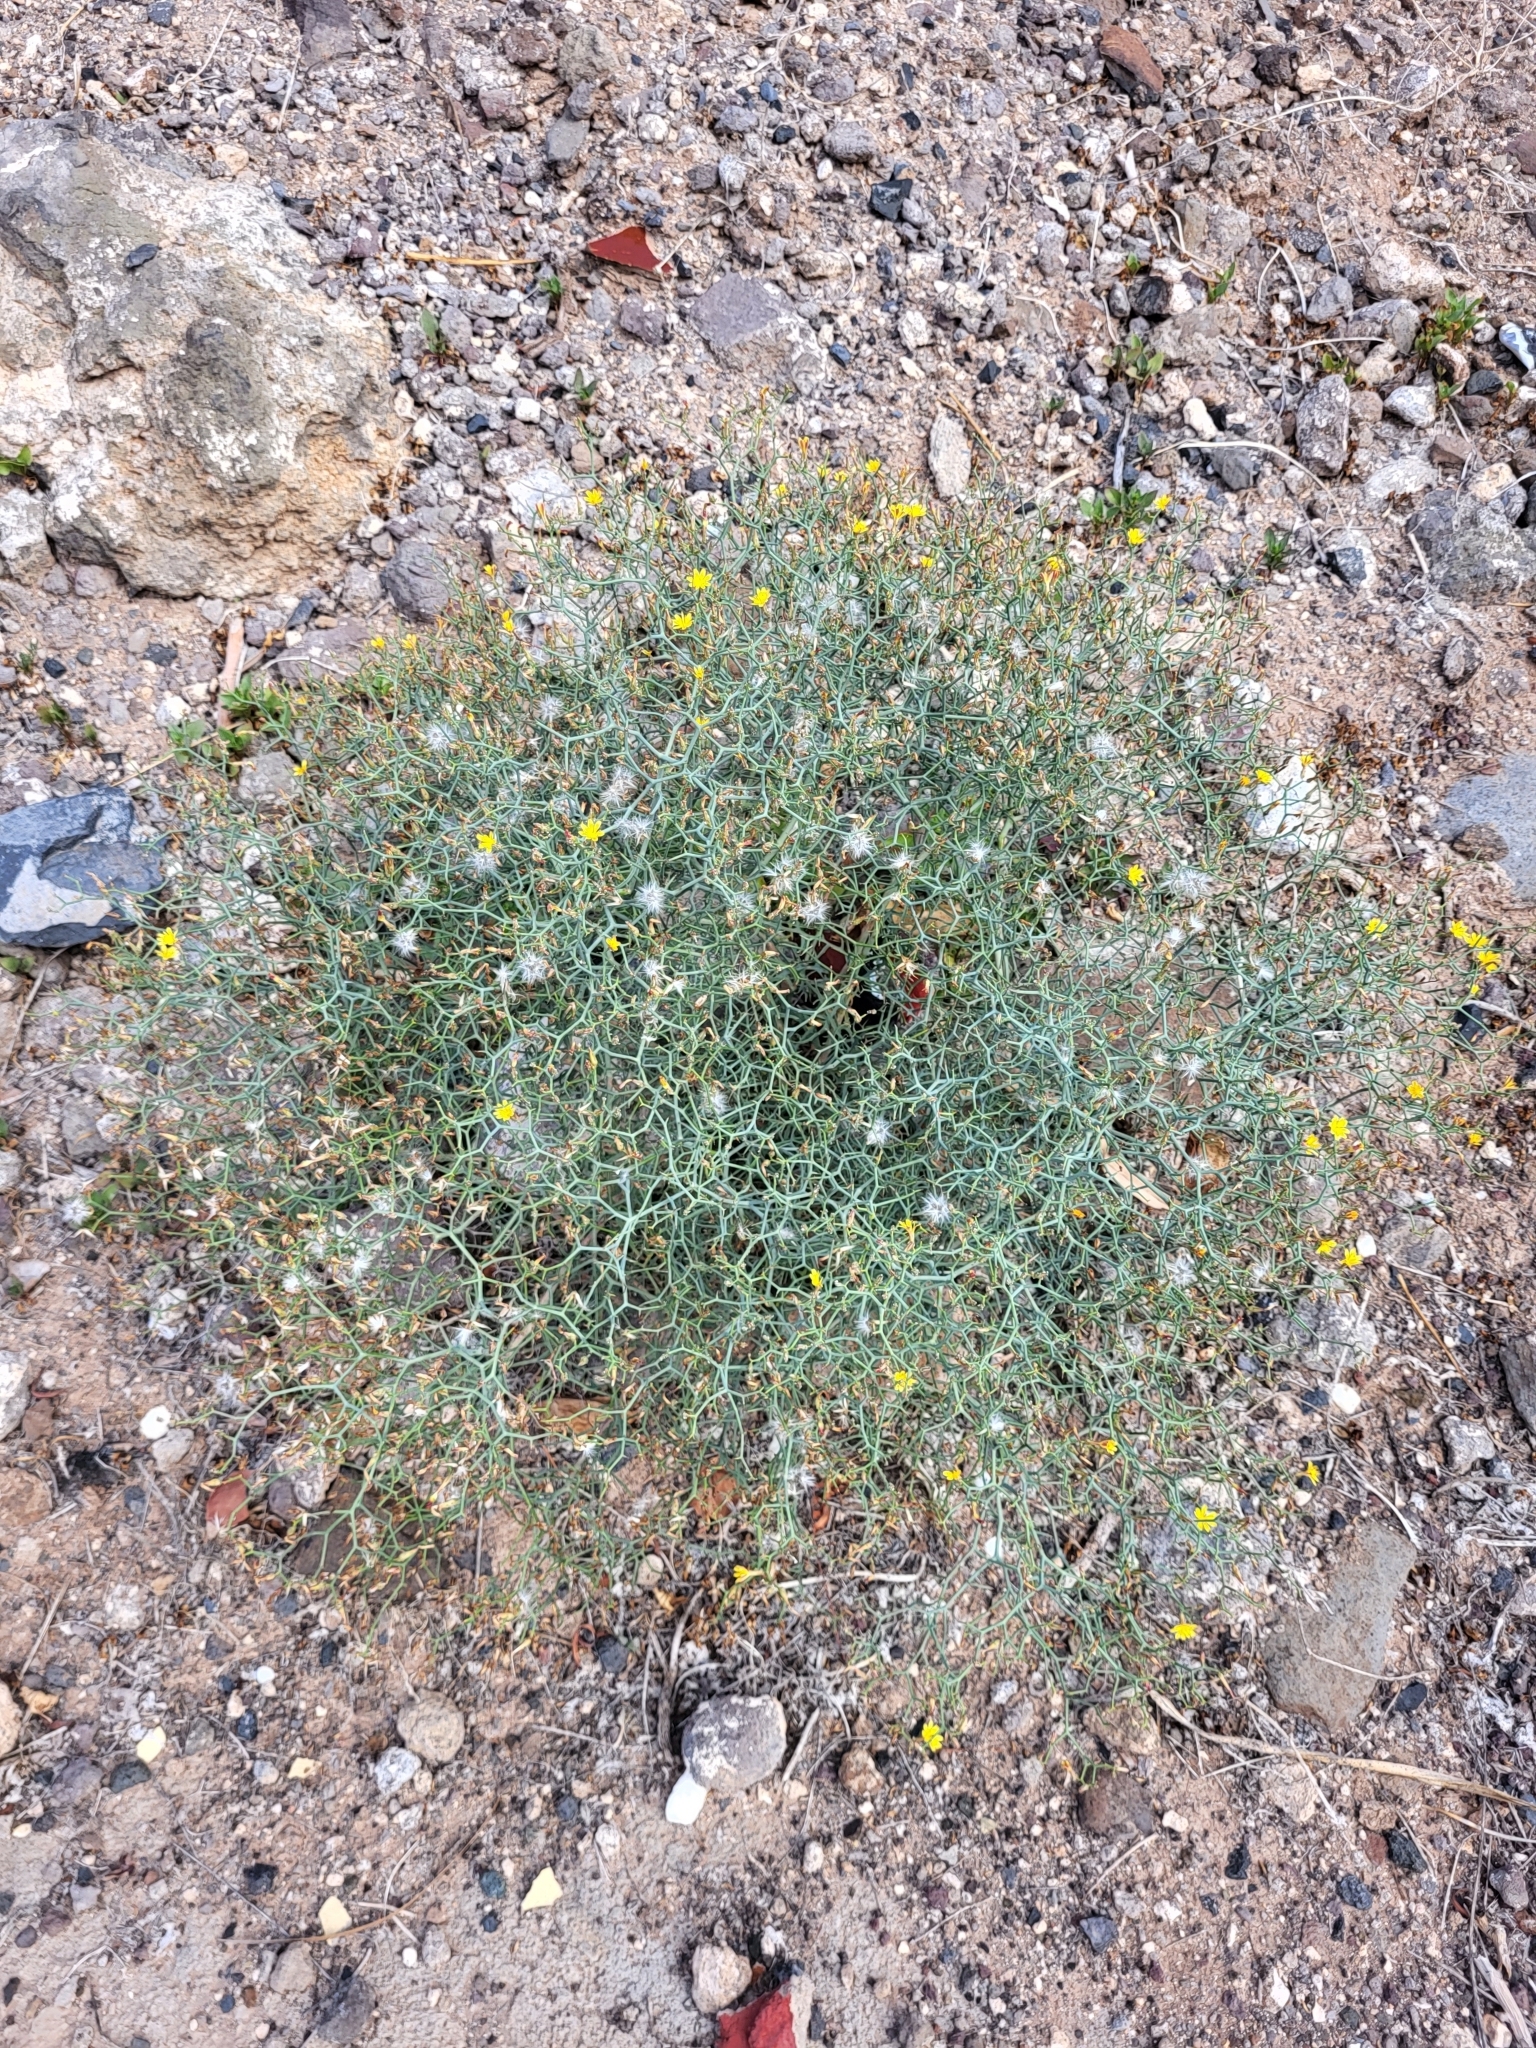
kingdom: Plantae
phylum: Tracheophyta
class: Magnoliopsida
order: Asterales
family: Asteraceae
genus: Launaea
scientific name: Launaea arborescens
